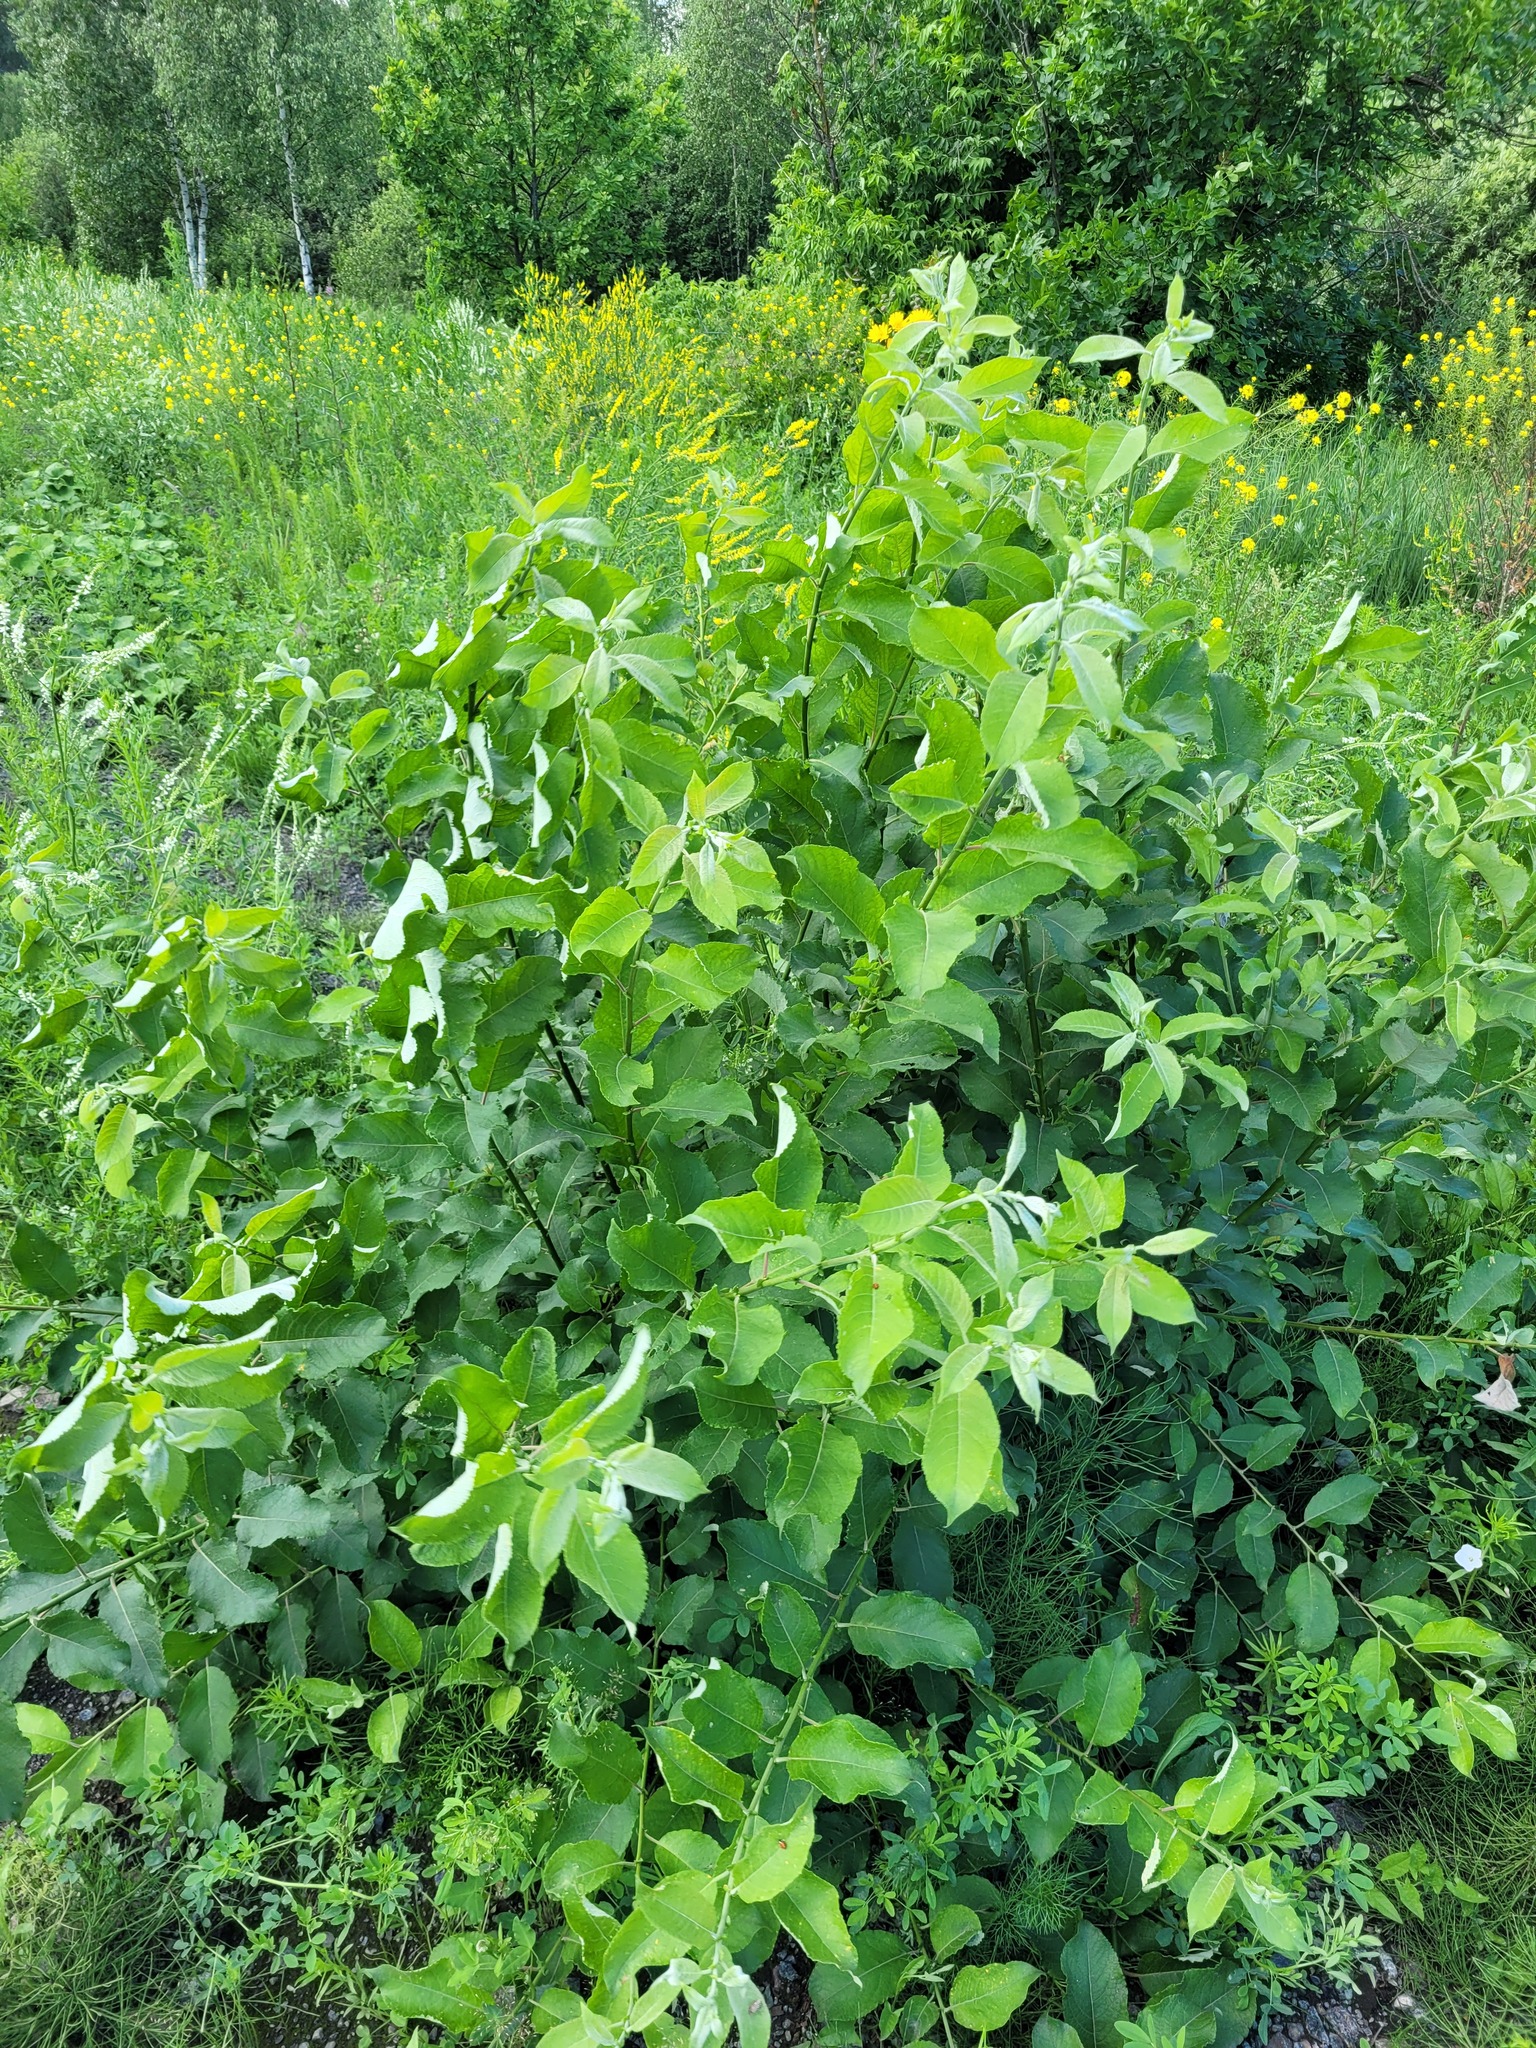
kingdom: Plantae
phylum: Tracheophyta
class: Magnoliopsida
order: Malpighiales
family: Salicaceae
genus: Salix
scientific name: Salix caprea
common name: Goat willow
